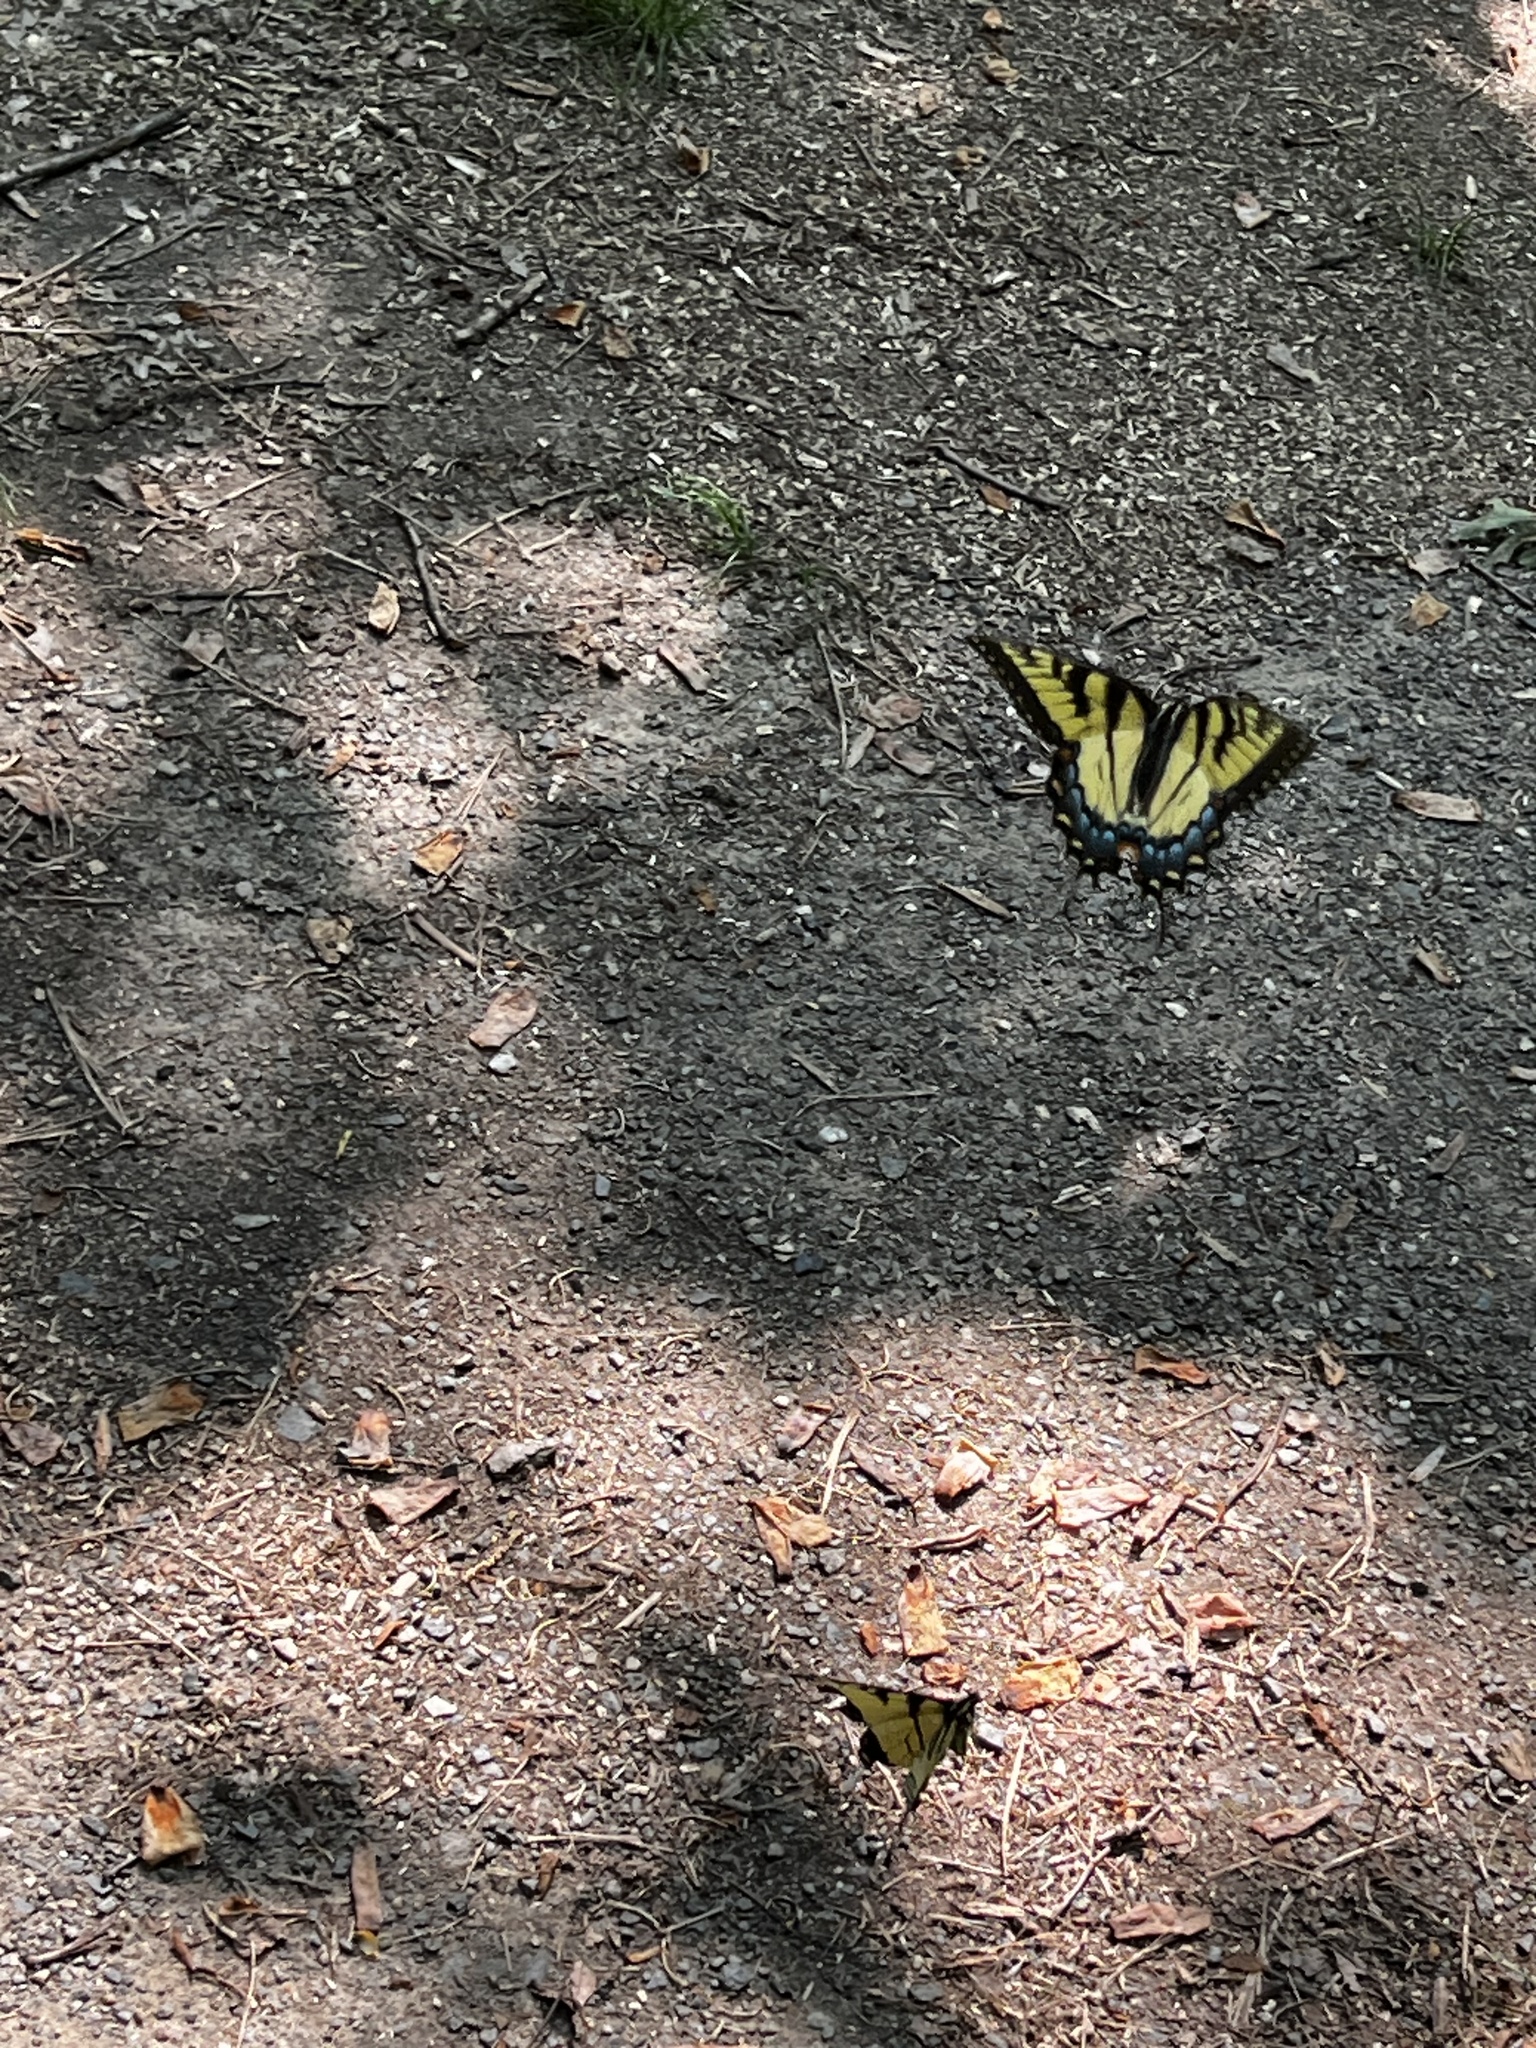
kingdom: Animalia
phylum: Arthropoda
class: Insecta
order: Lepidoptera
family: Papilionidae
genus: Papilio
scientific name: Papilio glaucus
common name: Tiger swallowtail
